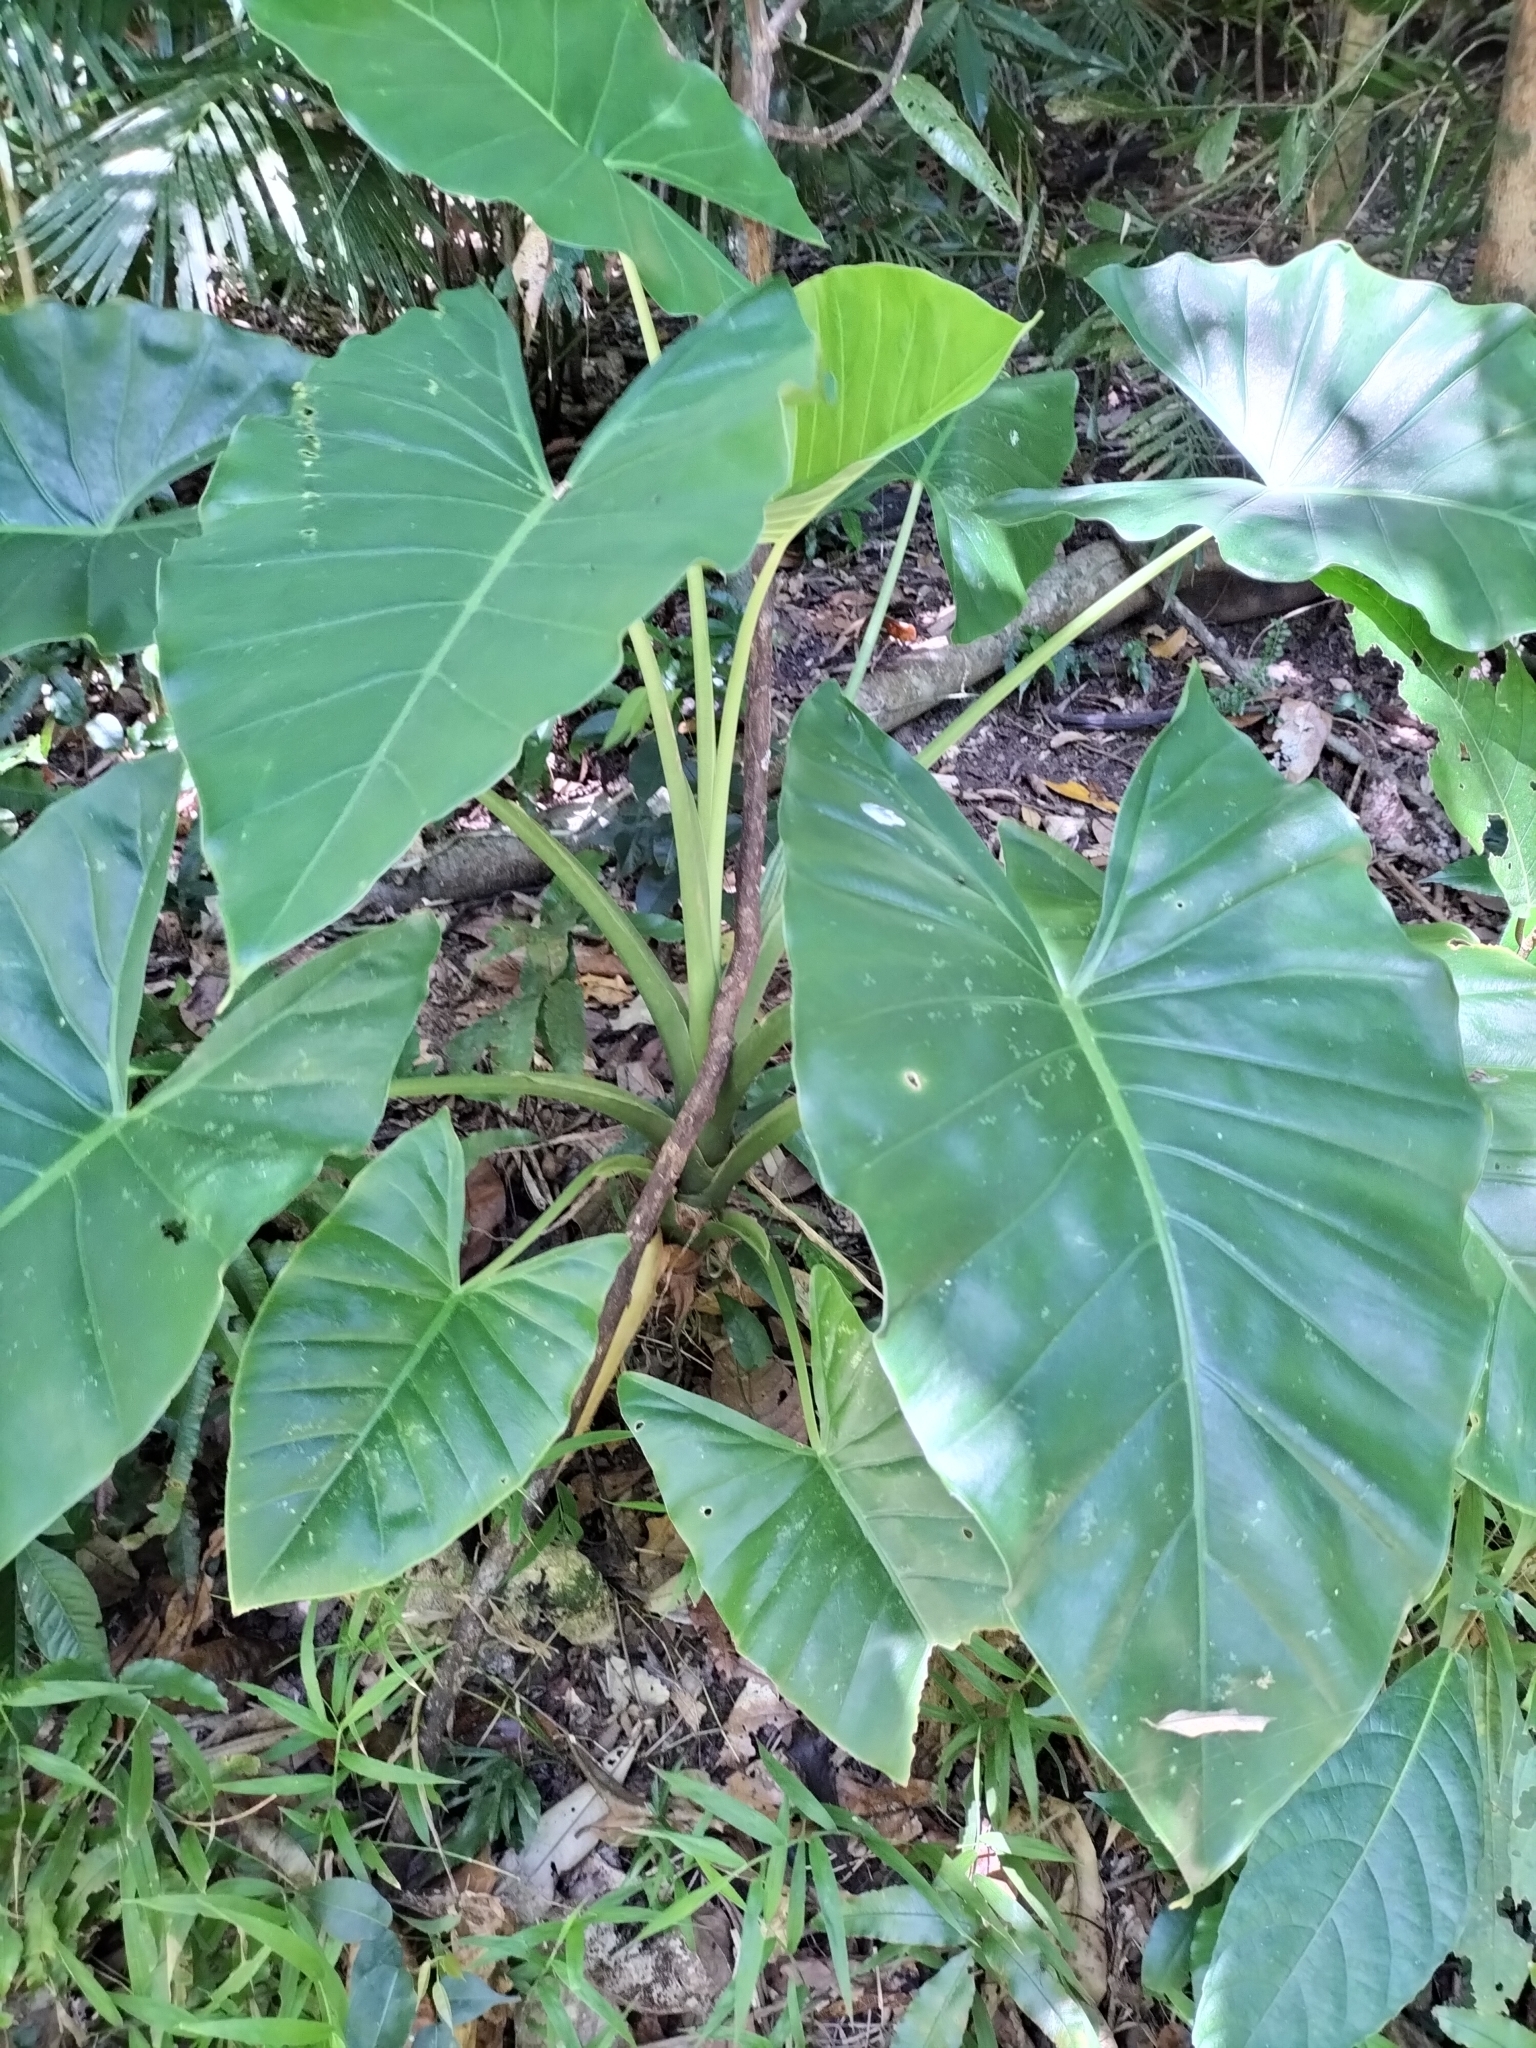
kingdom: Plantae
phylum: Tracheophyta
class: Liliopsida
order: Alismatales
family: Araceae
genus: Alocasia
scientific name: Alocasia brisbanensis
